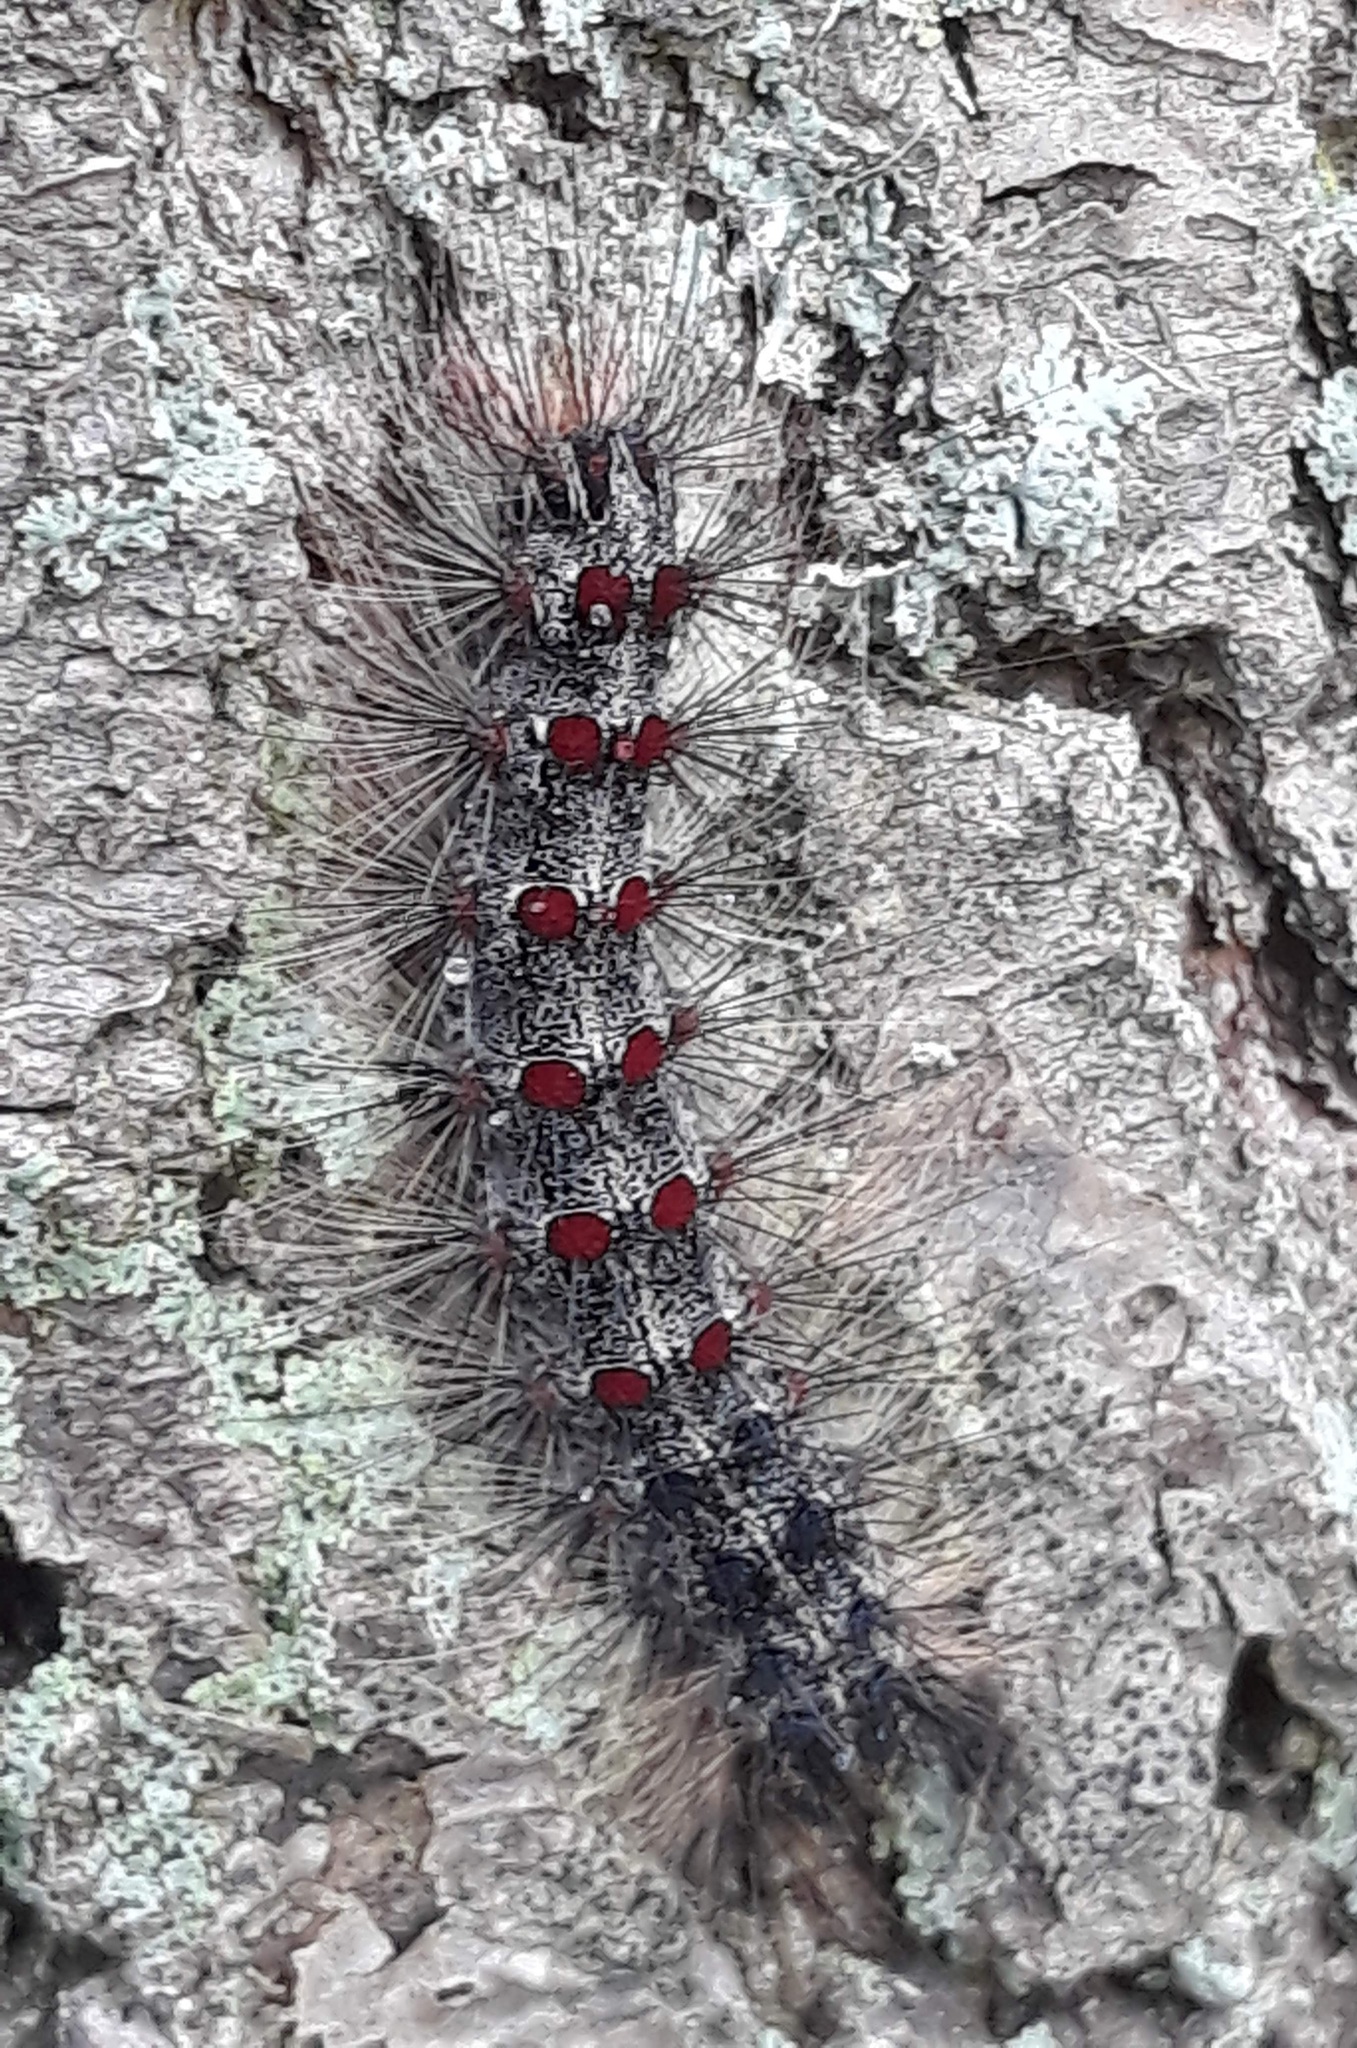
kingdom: Animalia
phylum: Arthropoda
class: Insecta
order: Lepidoptera
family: Erebidae
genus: Lymantria
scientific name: Lymantria dispar
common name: Gypsy moth
